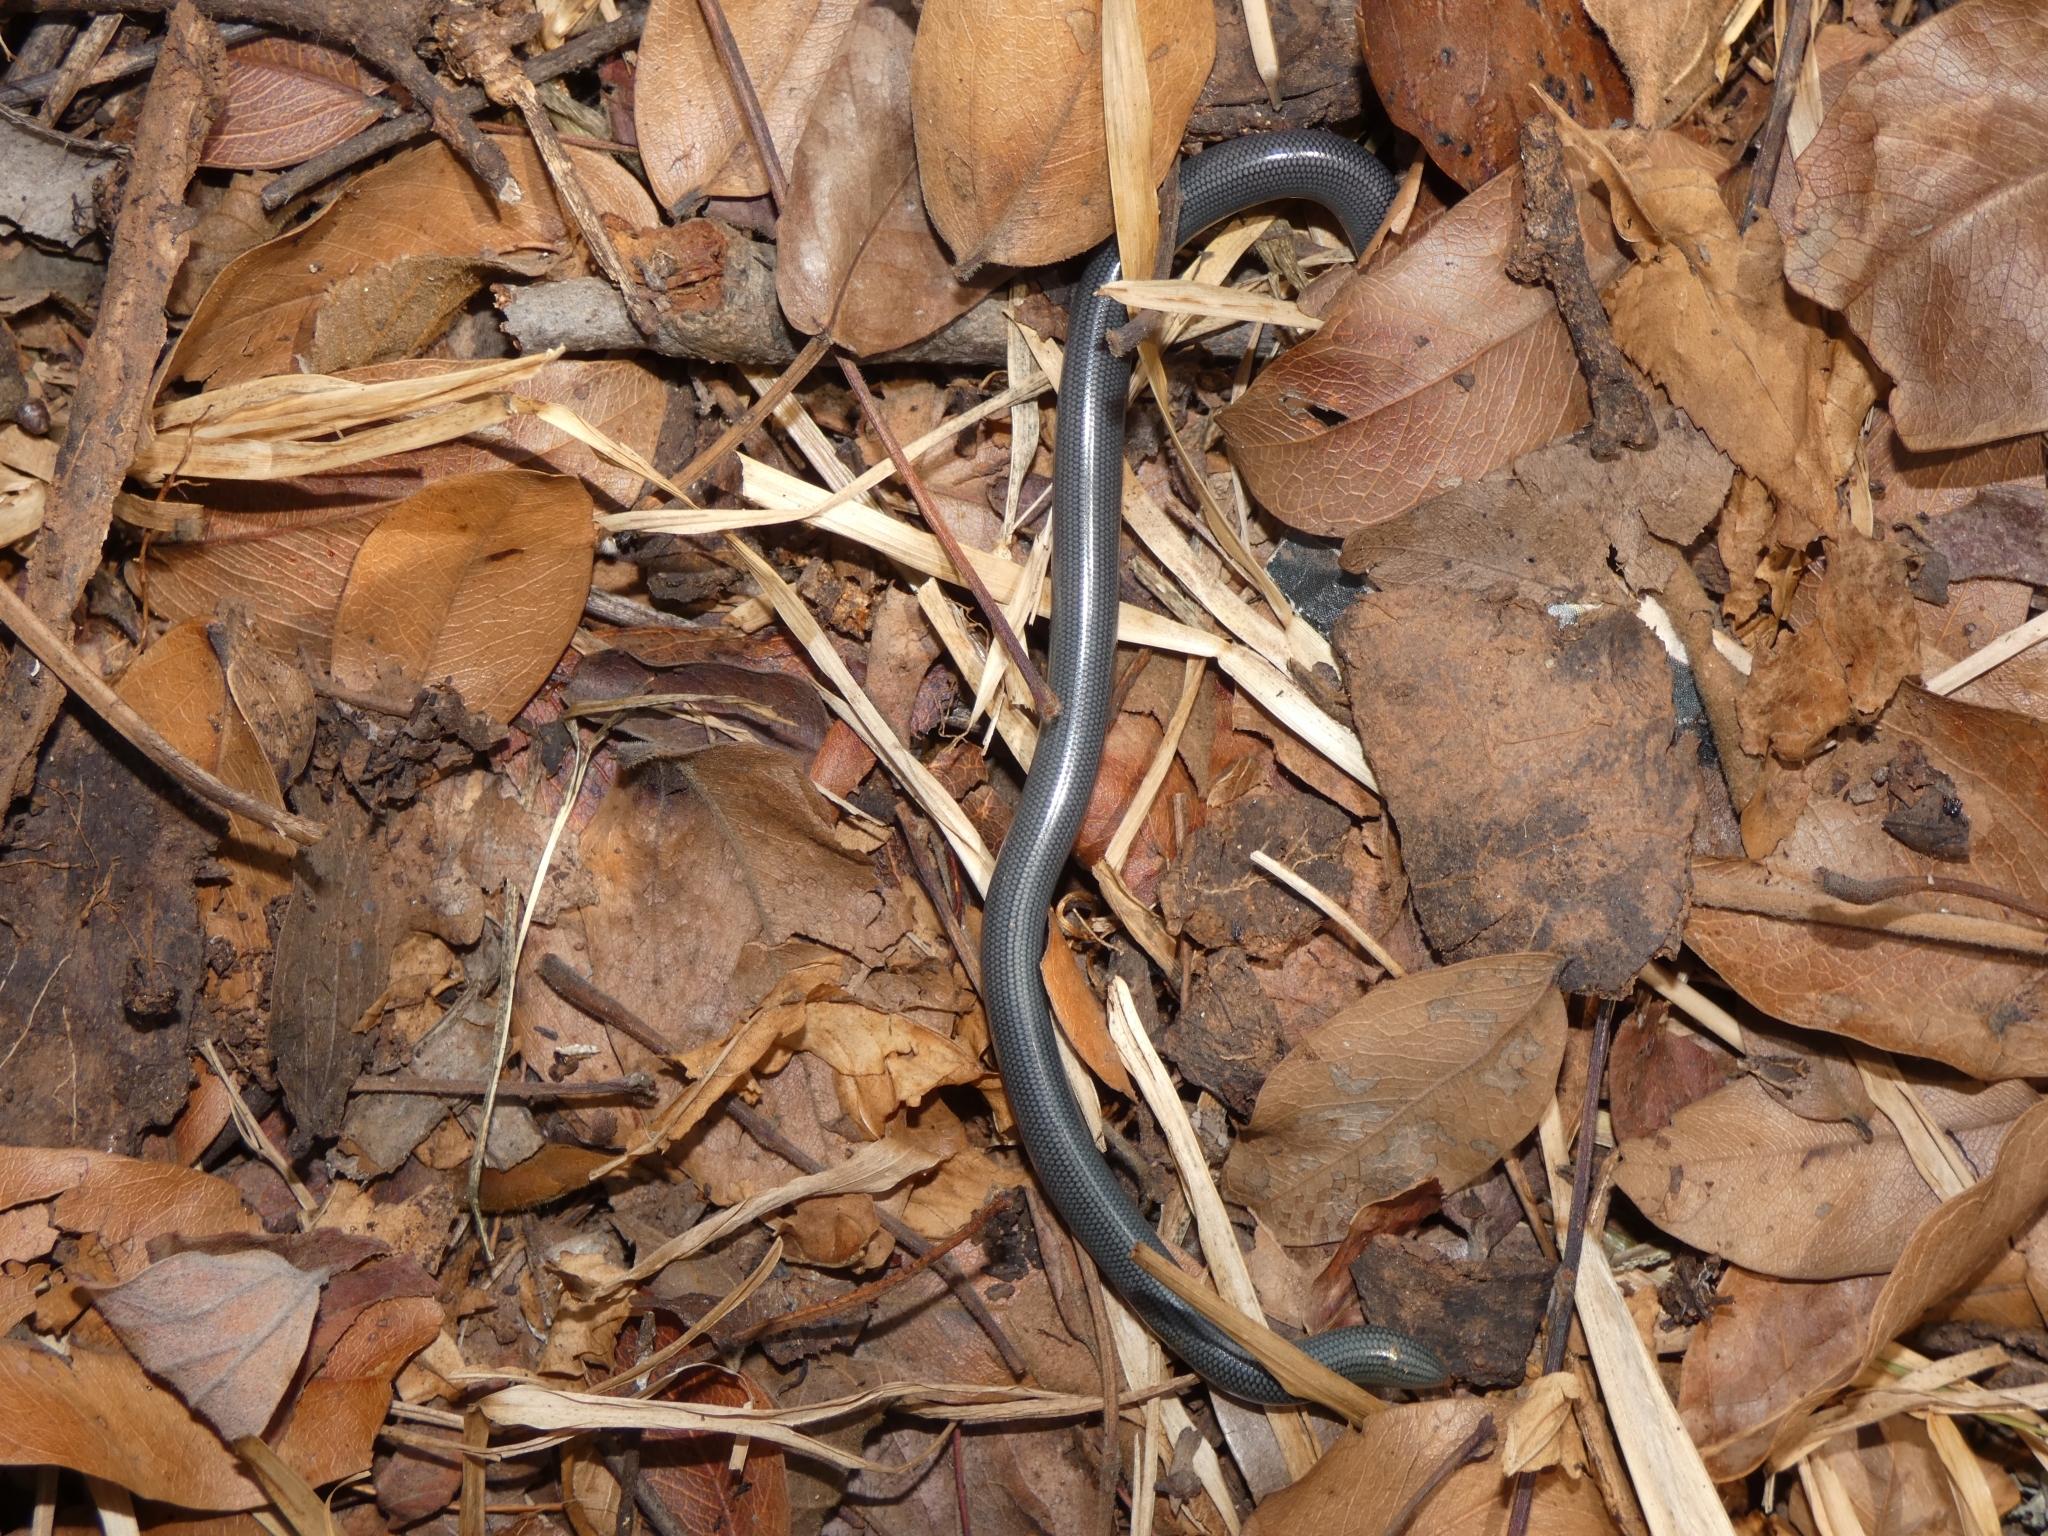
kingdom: Animalia
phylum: Chordata
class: Squamata
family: Typhlopidae
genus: Afrotyphlops
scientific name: Afrotyphlops mucruso
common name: Zambezi blind snake
